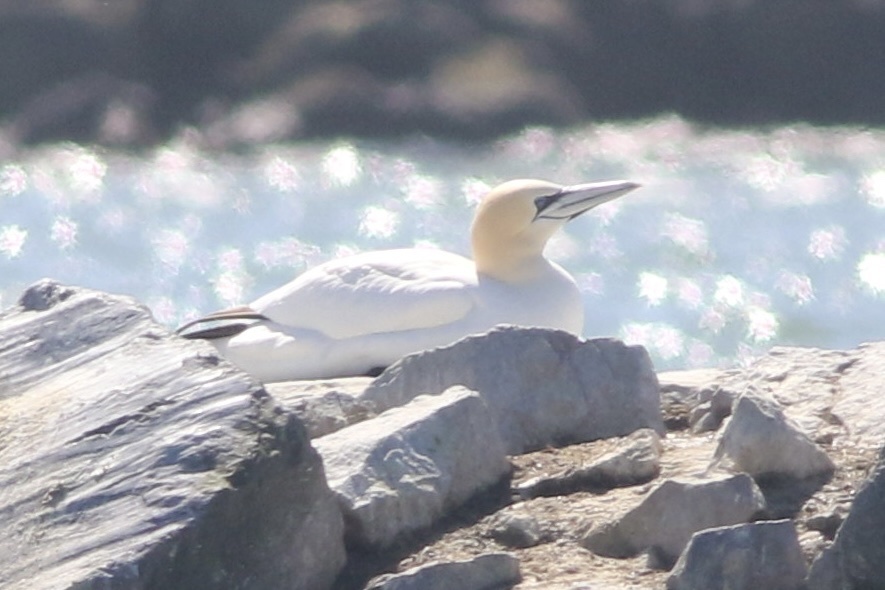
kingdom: Animalia
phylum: Chordata
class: Aves
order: Suliformes
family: Sulidae
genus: Morus
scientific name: Morus bassanus
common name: Northern gannet
